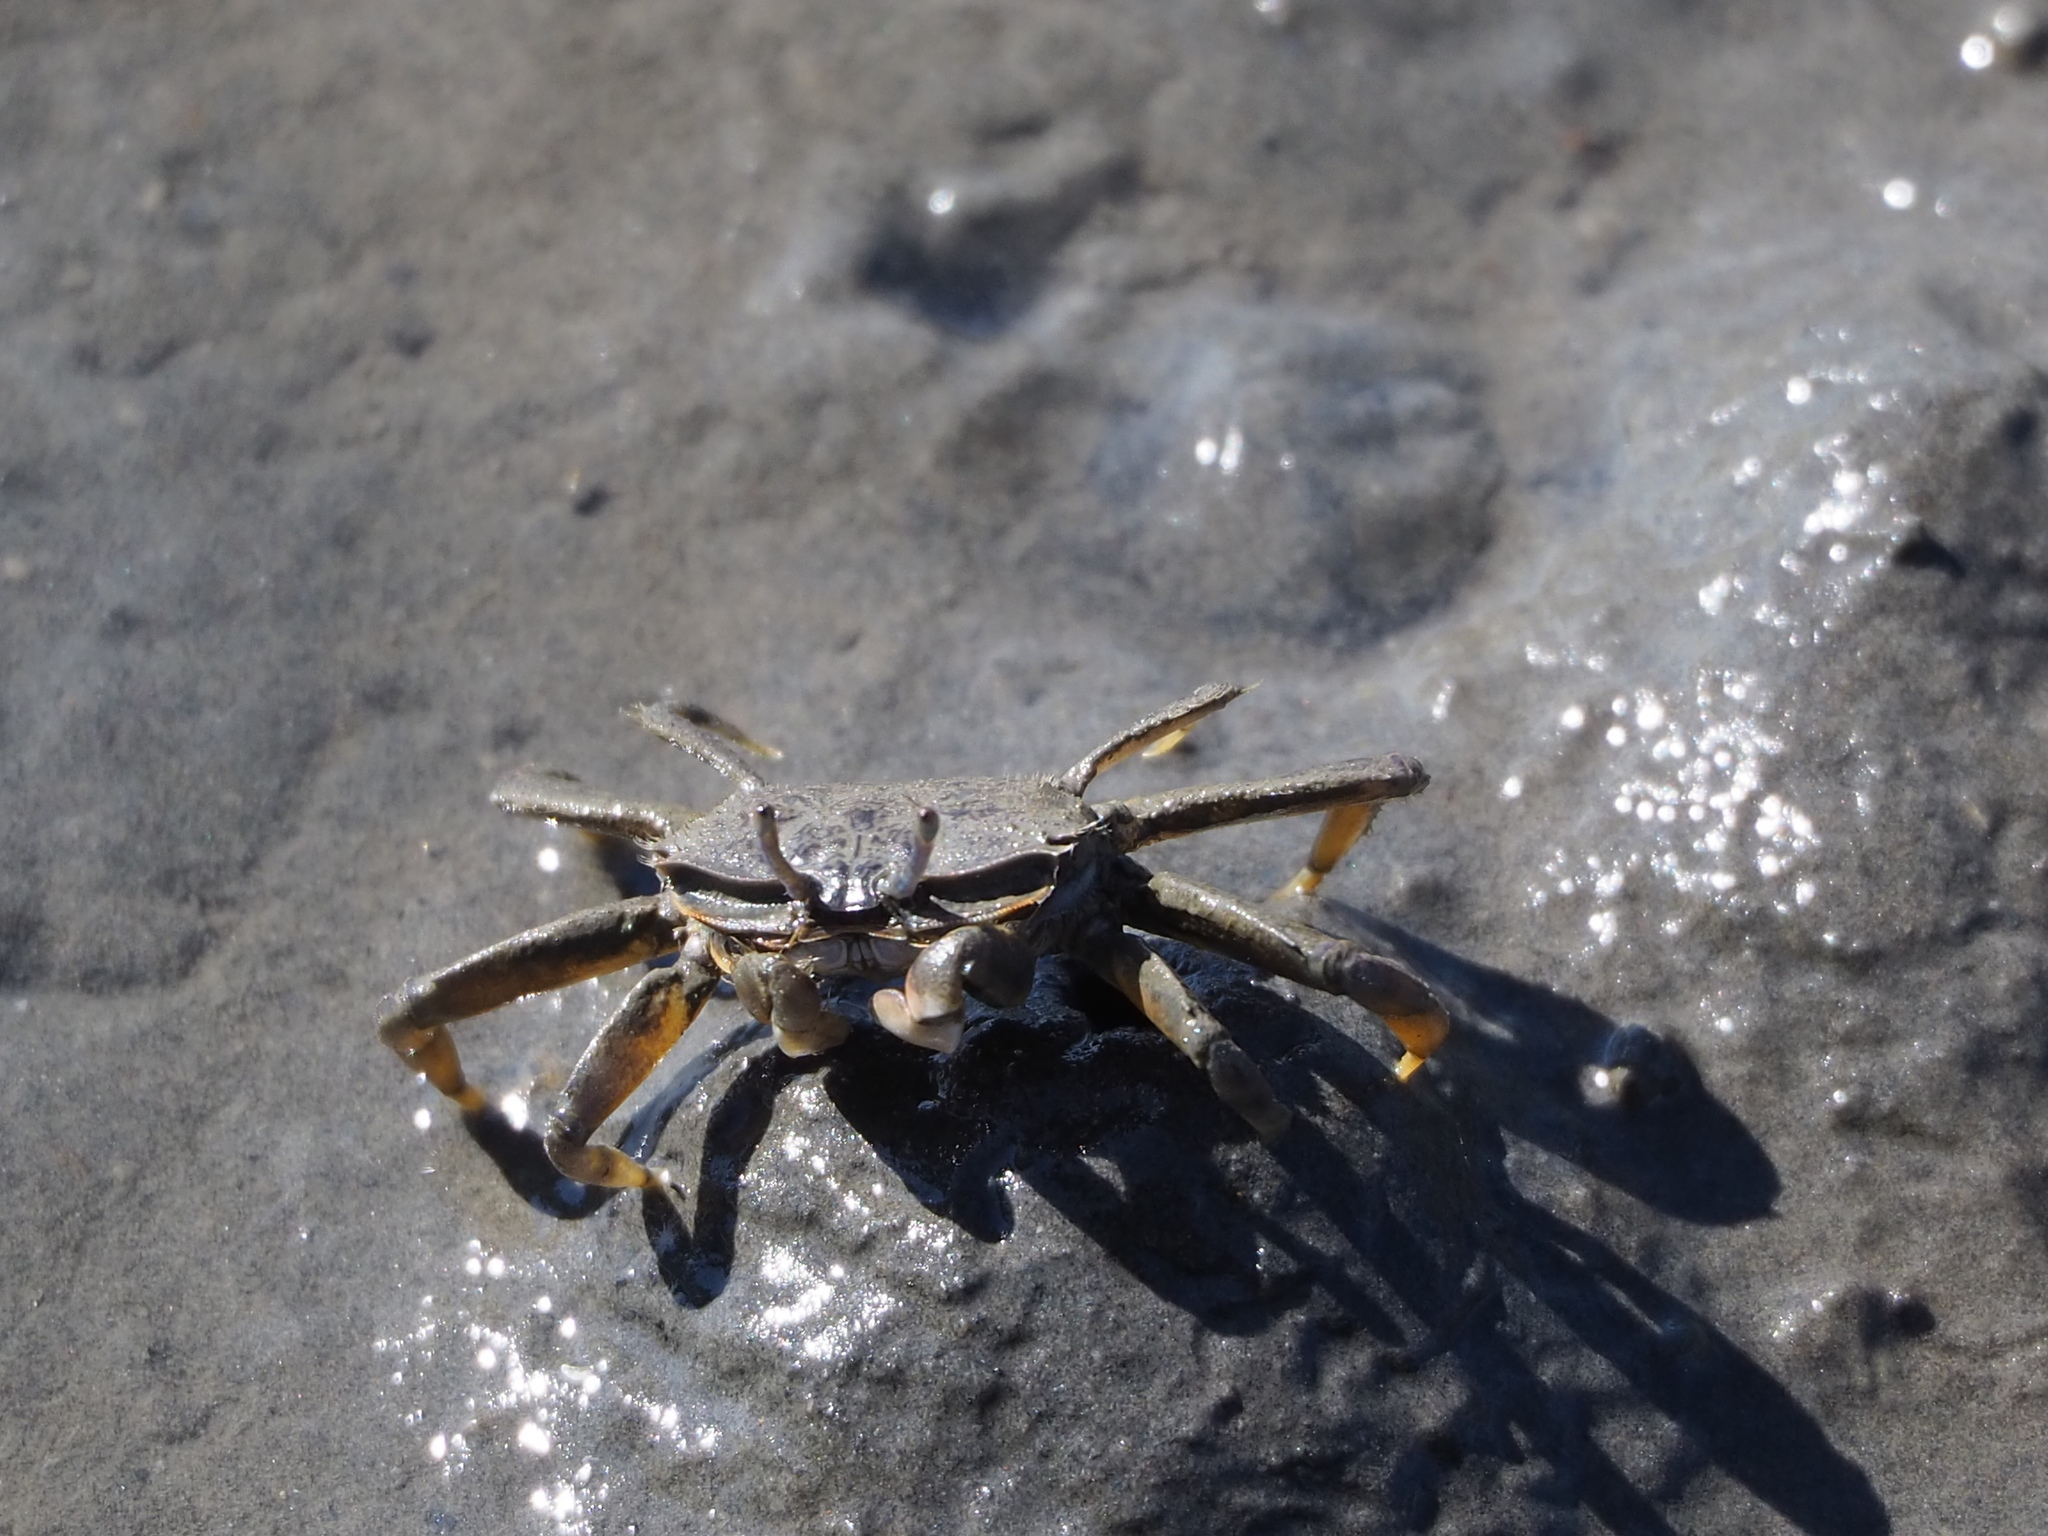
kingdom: Animalia
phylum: Arthropoda
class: Malacostraca
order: Decapoda
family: Macrophthalmidae
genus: Macrophthalmus
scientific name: Macrophthalmus banzai
